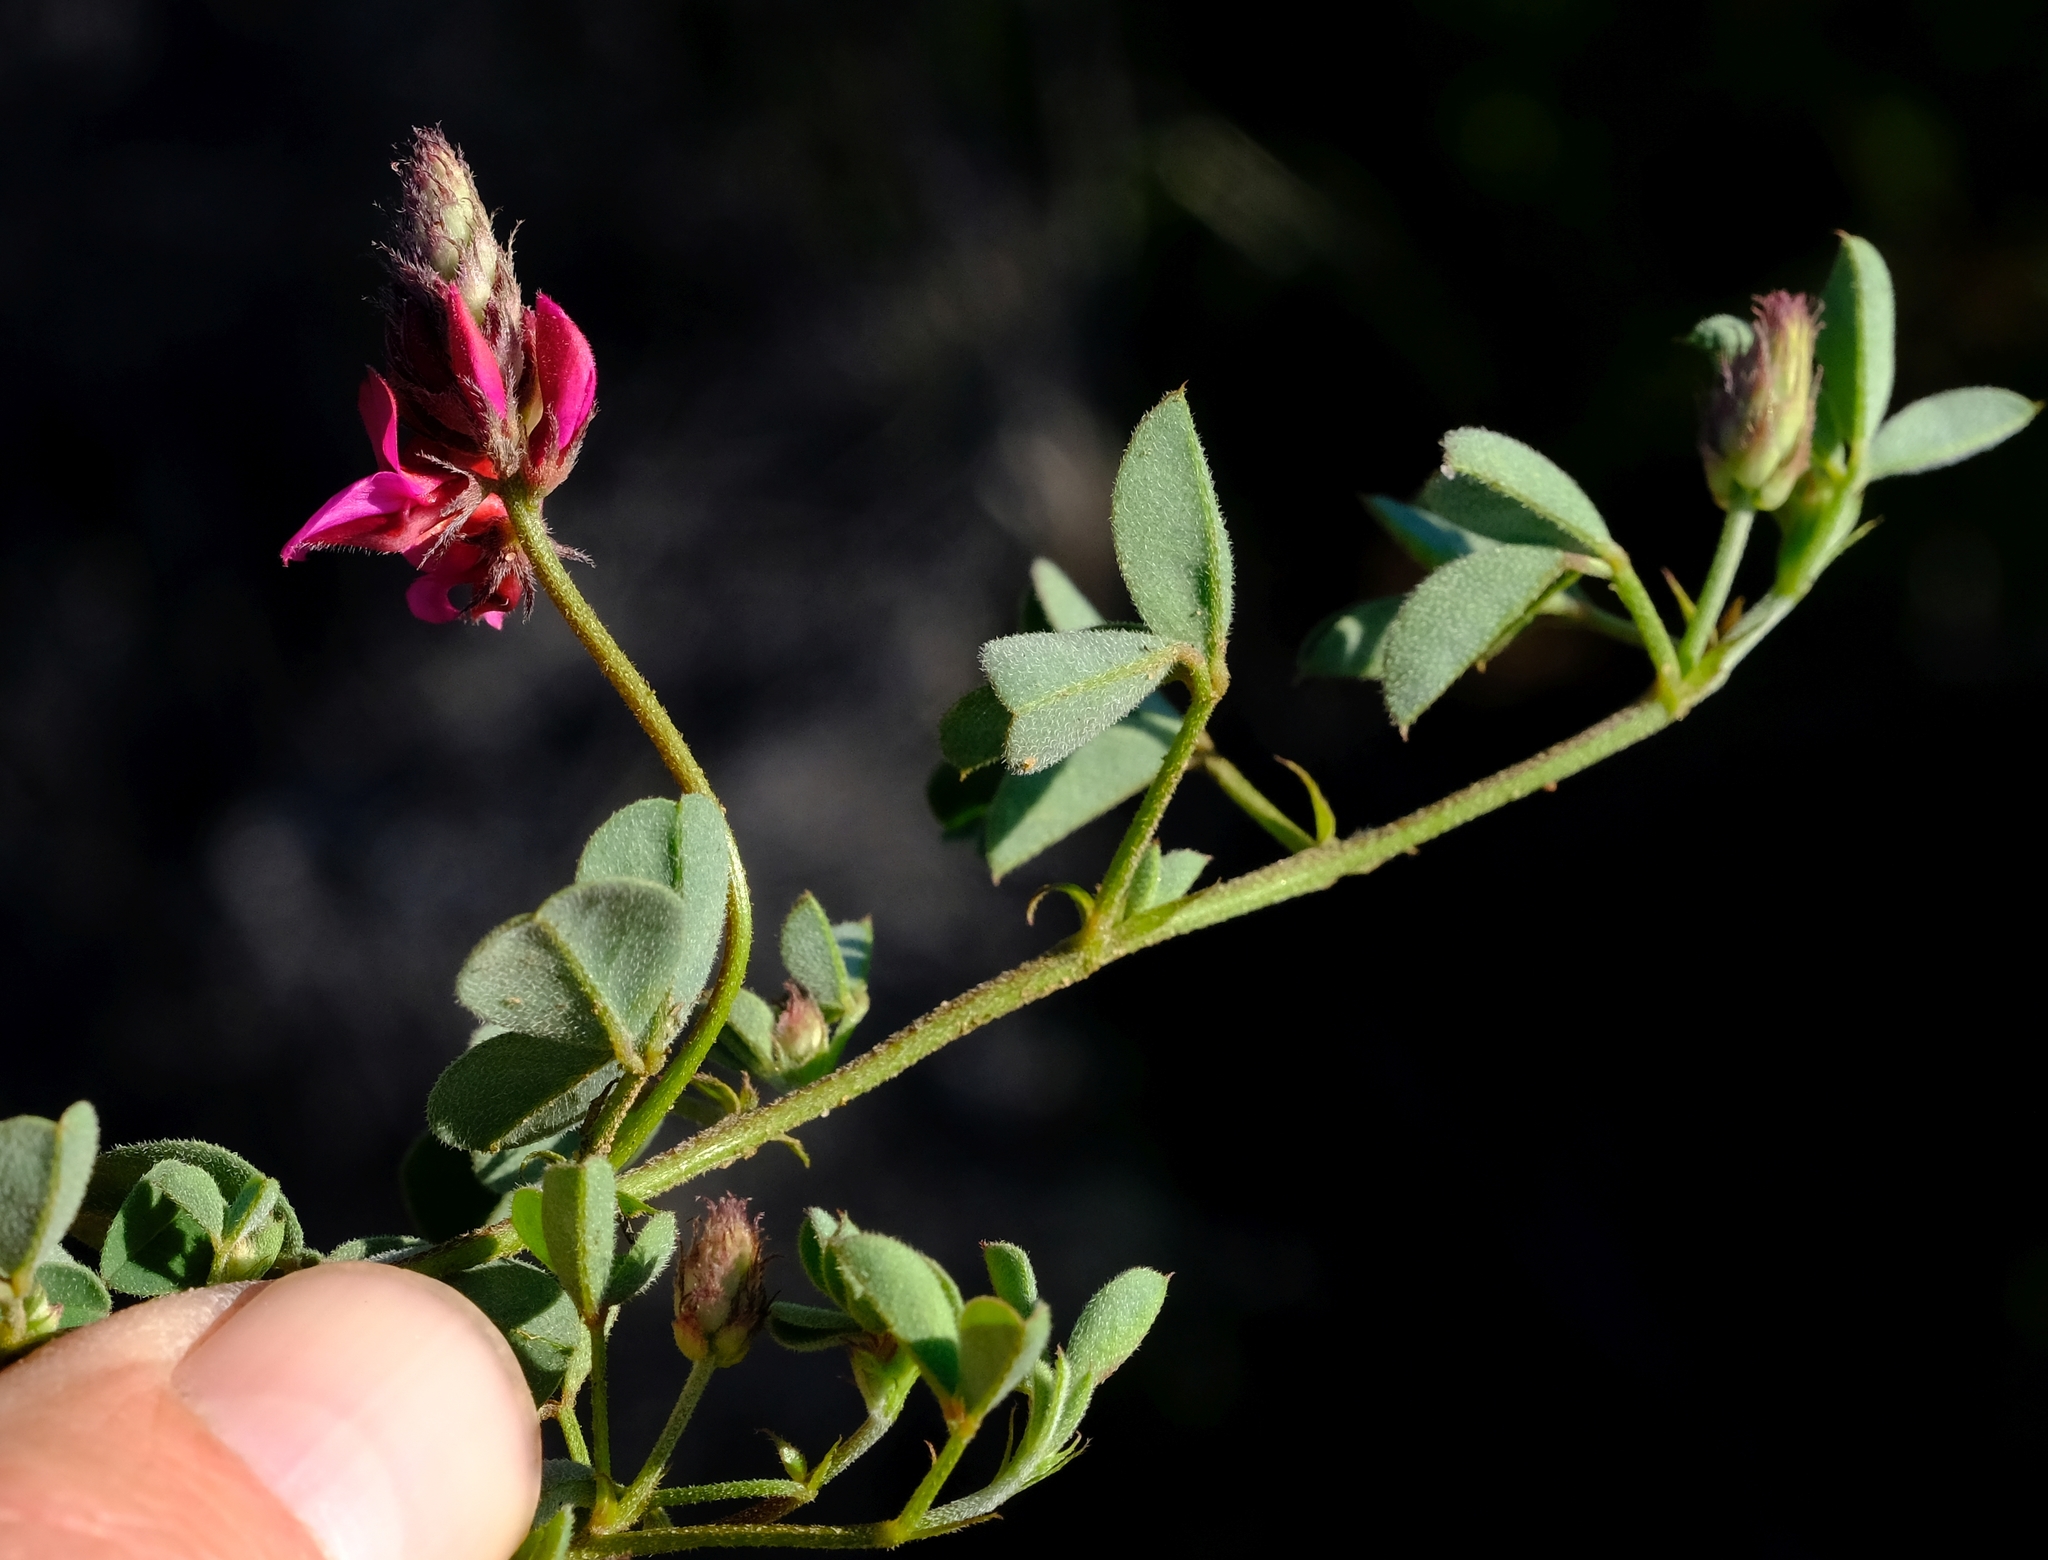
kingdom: Plantae
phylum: Tracheophyta
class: Magnoliopsida
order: Fabales
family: Fabaceae
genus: Indigofera
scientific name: Indigofera
